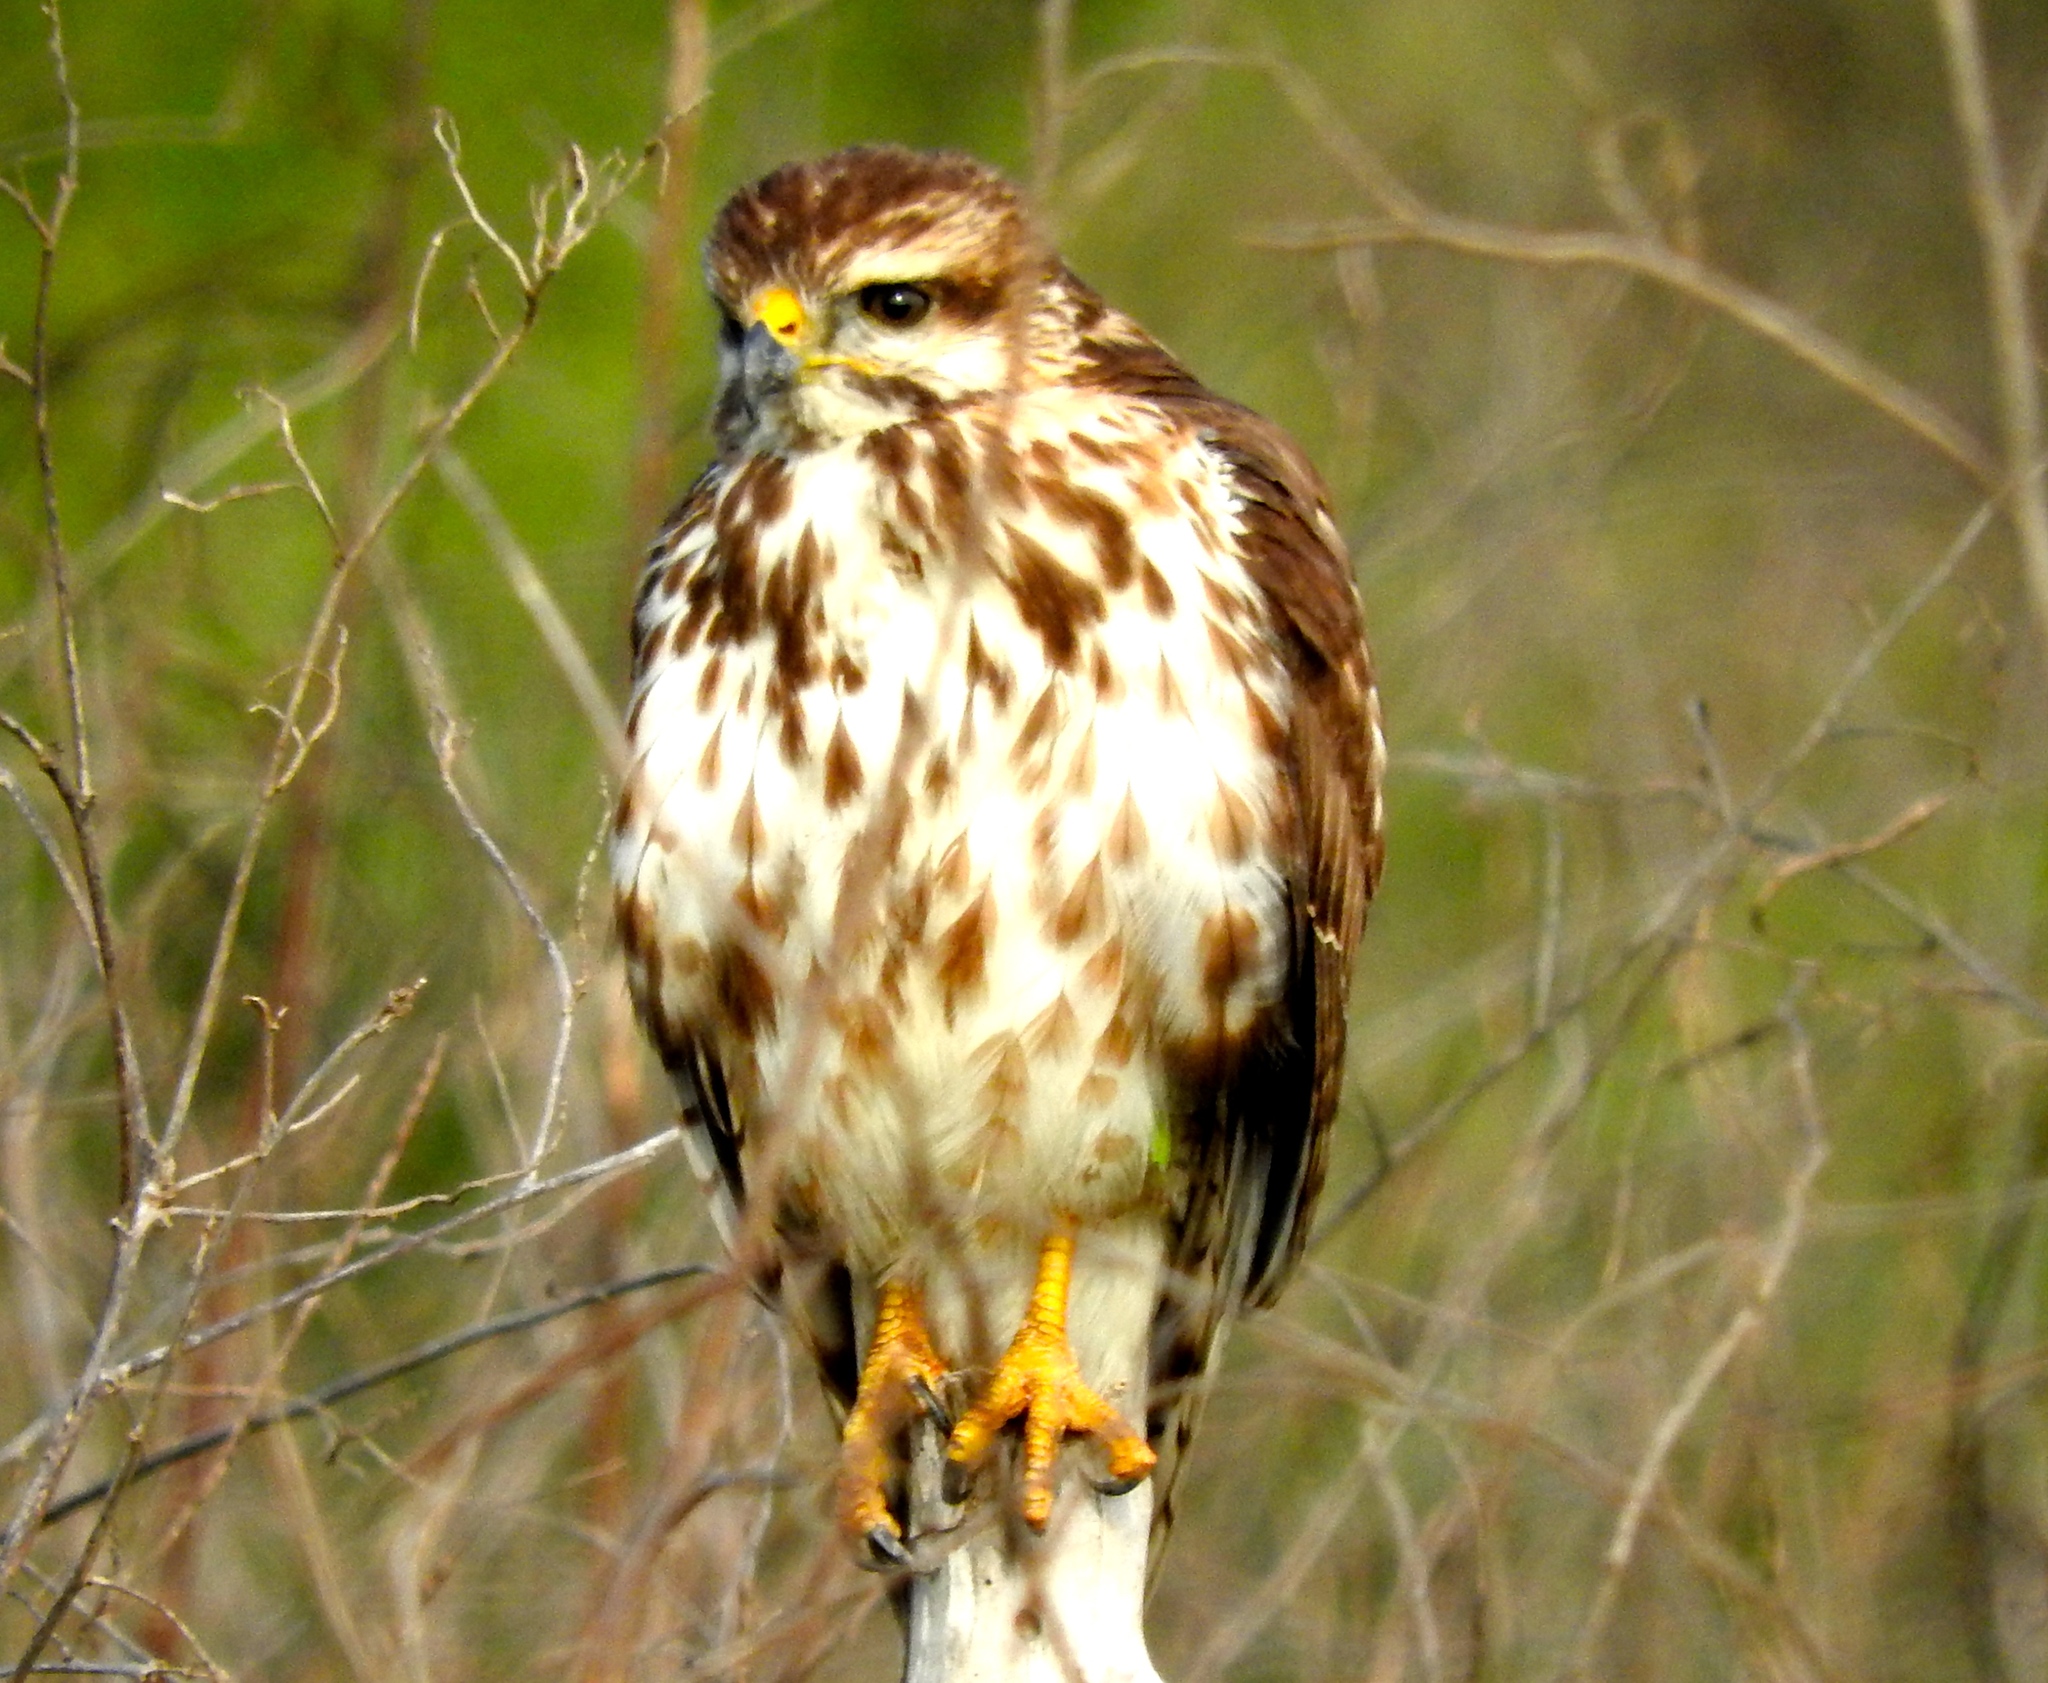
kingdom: Animalia
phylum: Chordata
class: Aves
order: Accipitriformes
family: Accipitridae
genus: Buteo
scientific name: Buteo nitidus
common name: Grey-lined hawk
